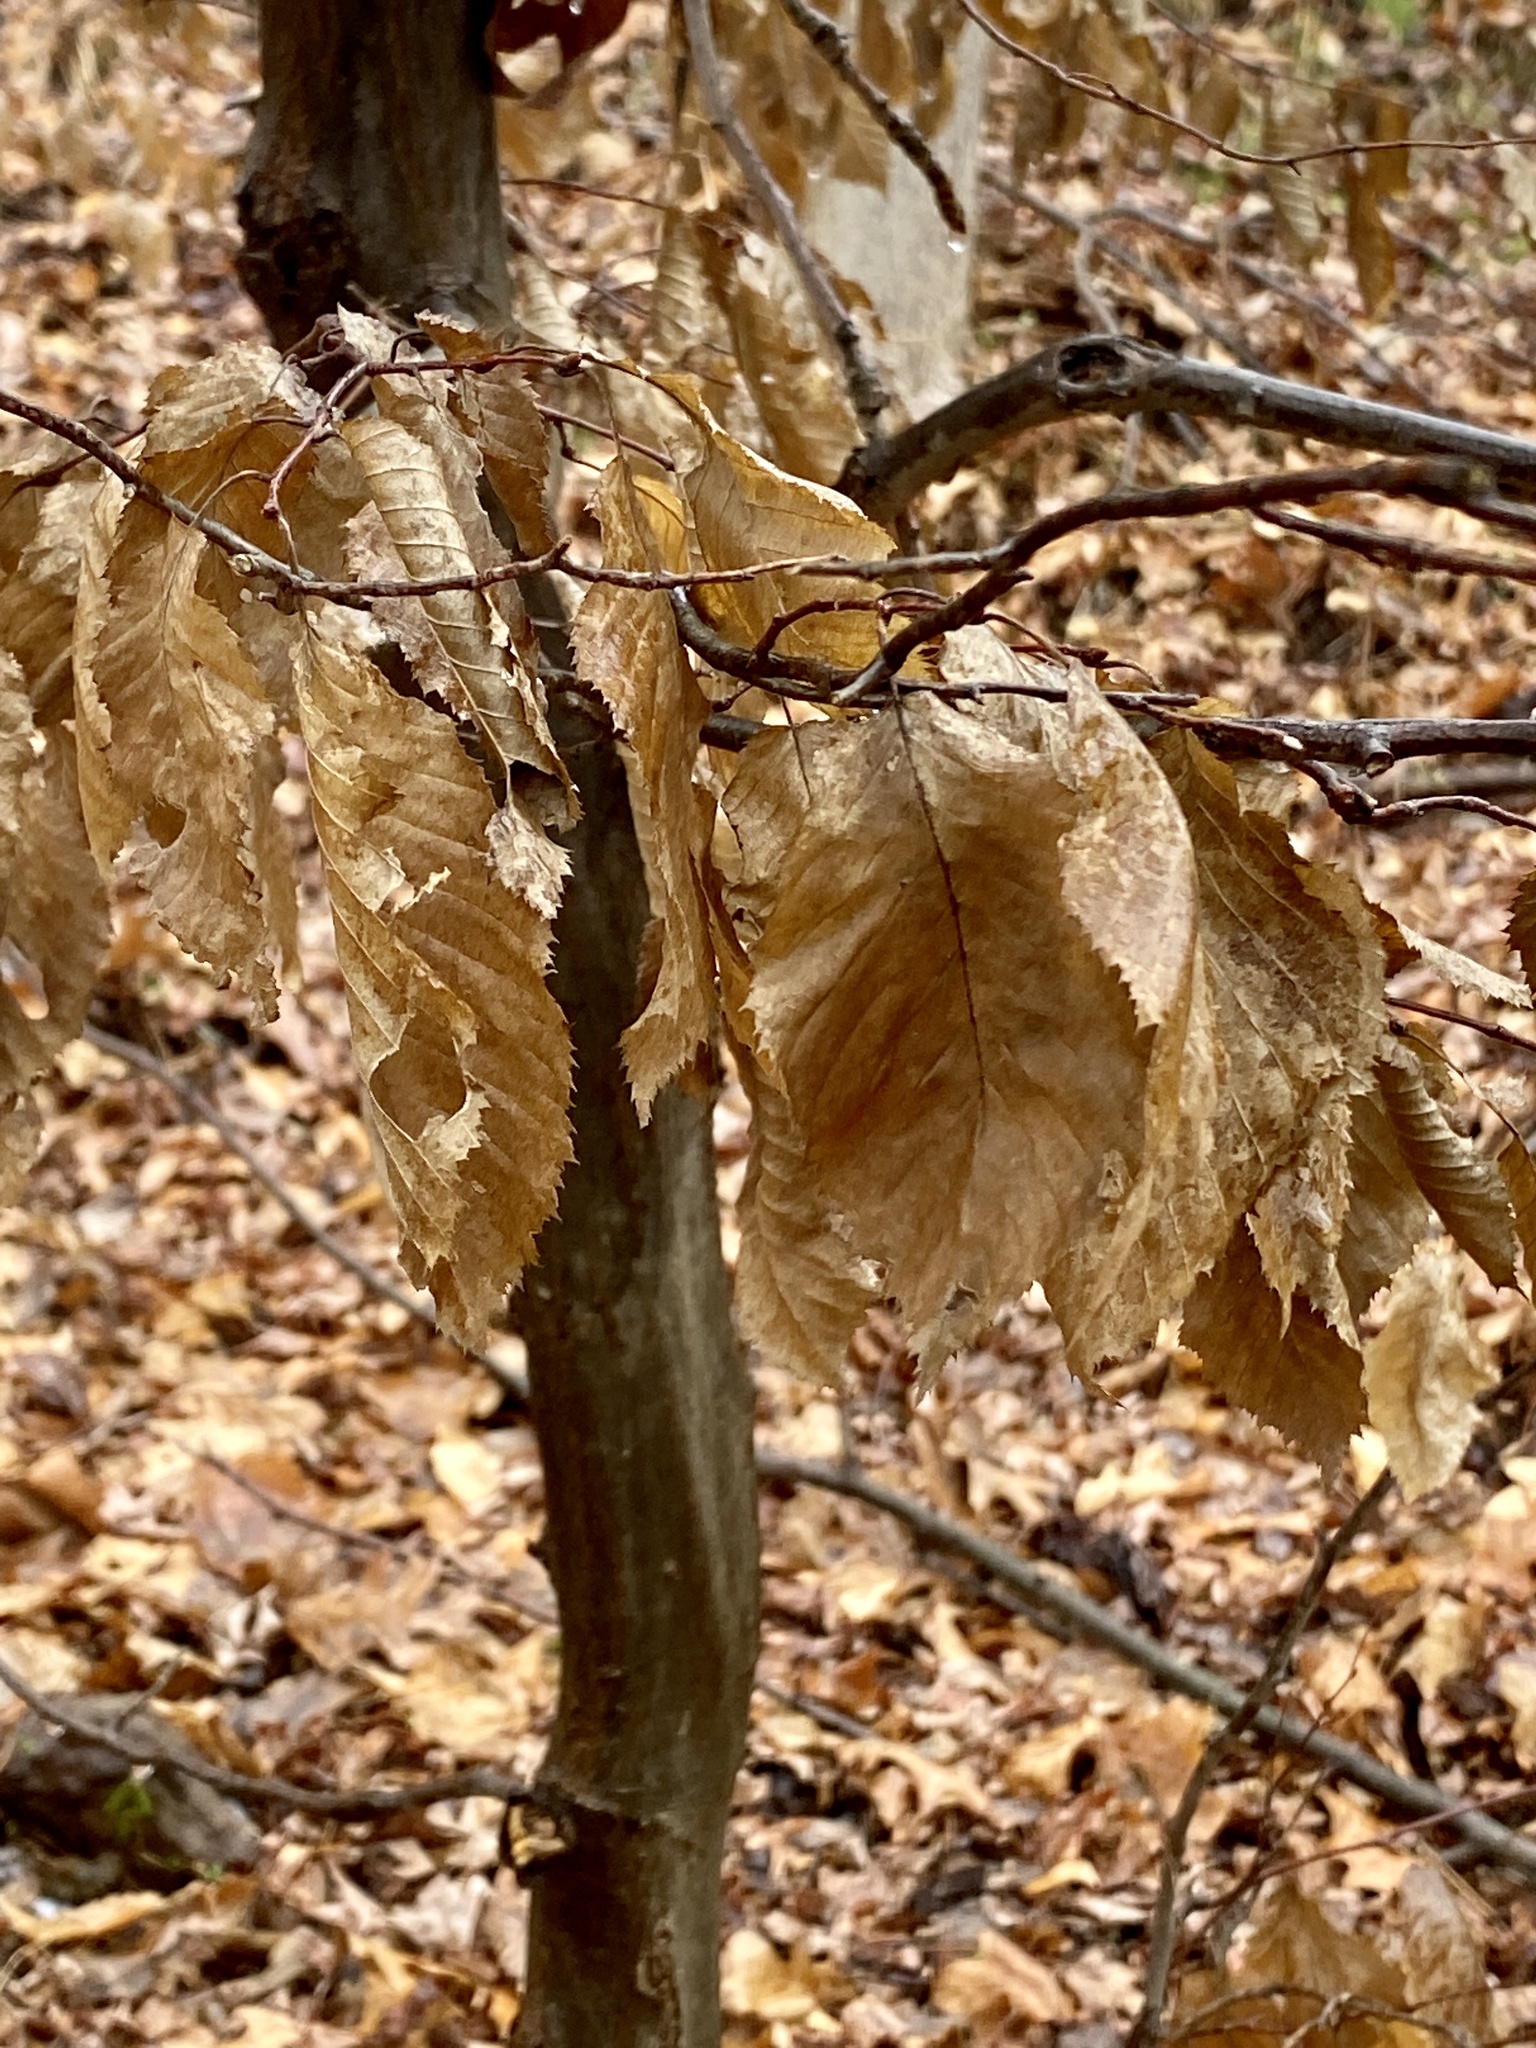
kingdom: Plantae
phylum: Tracheophyta
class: Magnoliopsida
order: Fagales
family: Betulaceae
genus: Carpinus
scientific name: Carpinus caroliniana
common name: American hornbeam
